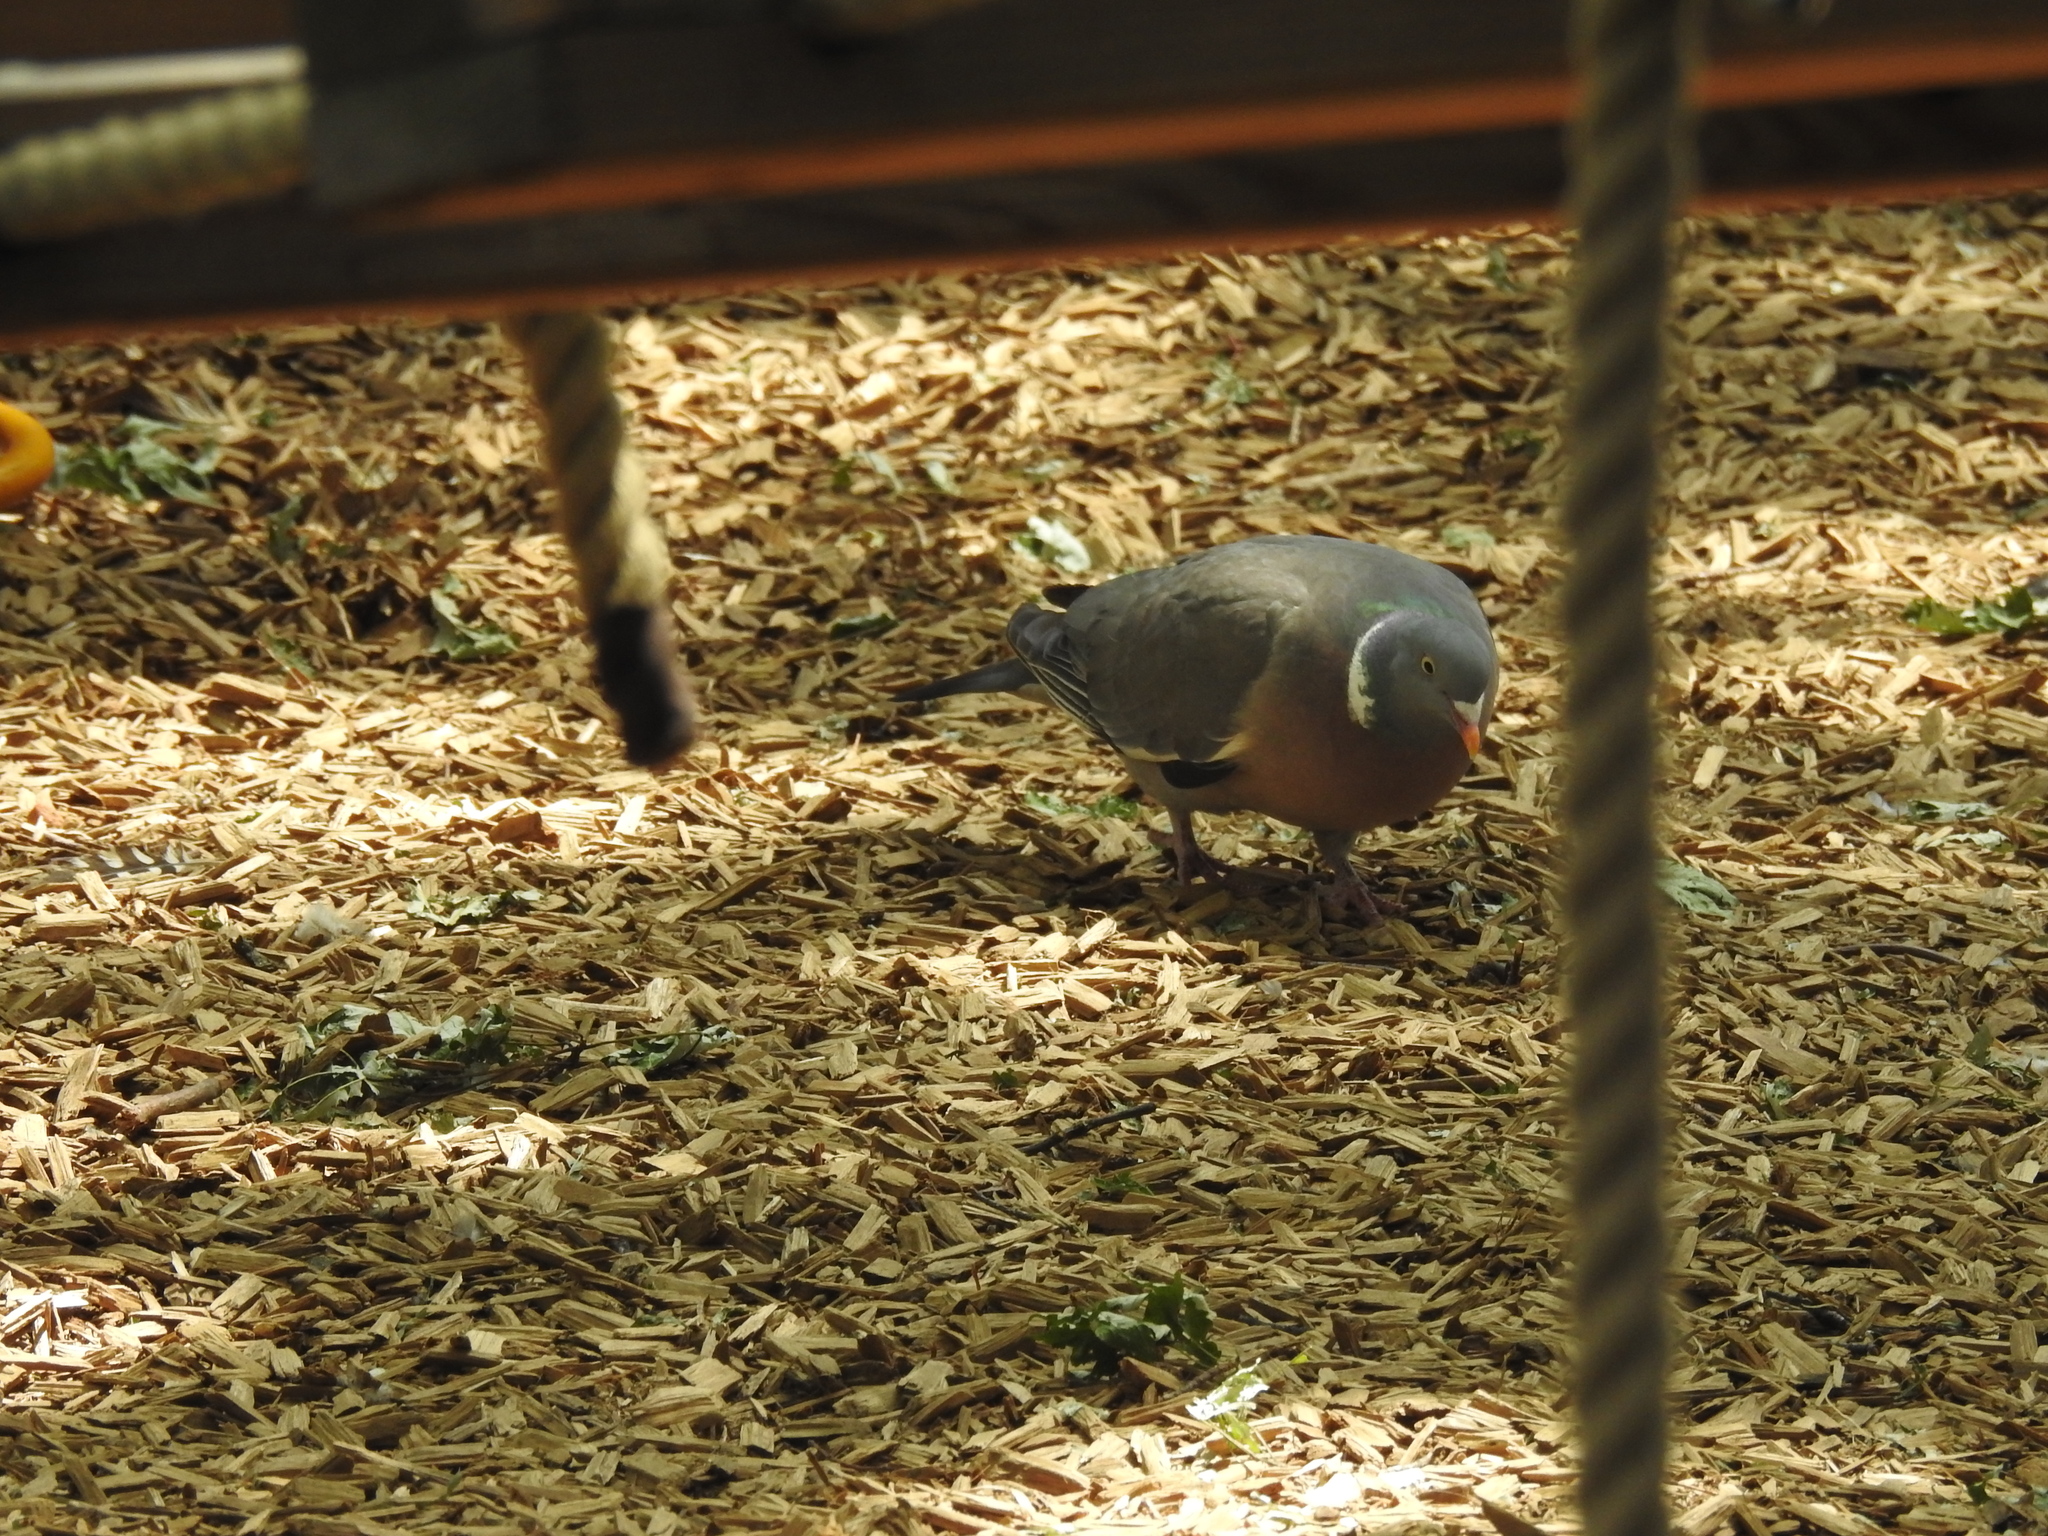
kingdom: Animalia
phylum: Chordata
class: Aves
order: Columbiformes
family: Columbidae
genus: Columba
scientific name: Columba palumbus
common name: Common wood pigeon
